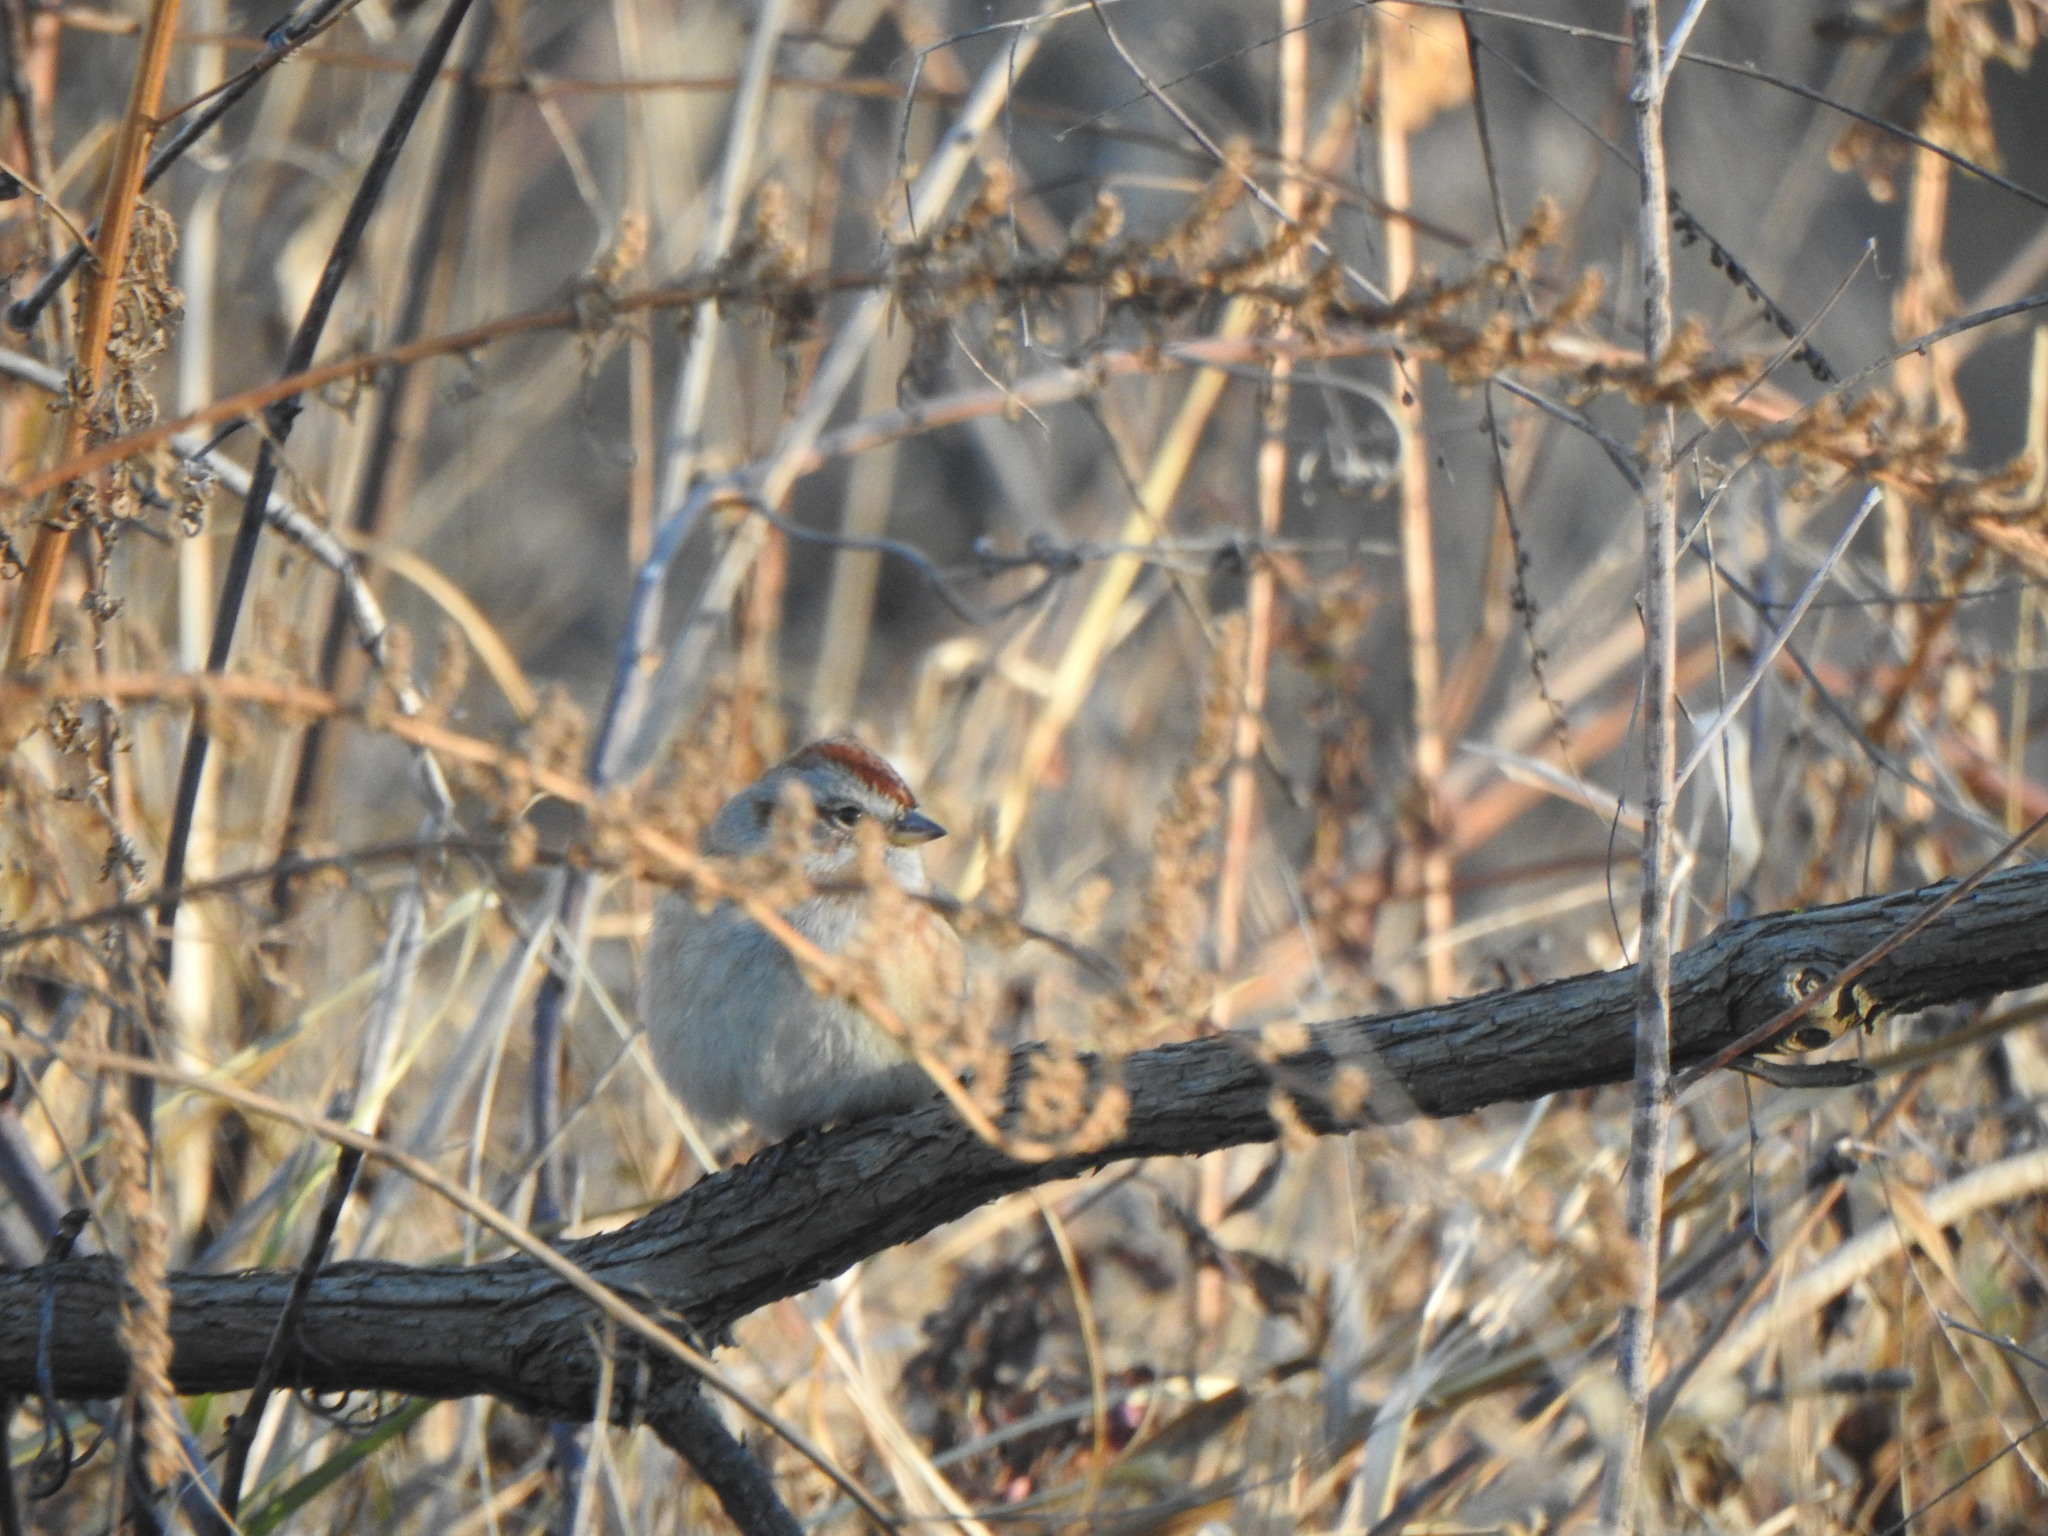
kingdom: Animalia
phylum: Chordata
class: Aves
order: Passeriformes
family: Passerellidae
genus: Spizelloides
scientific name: Spizelloides arborea
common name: American tree sparrow
